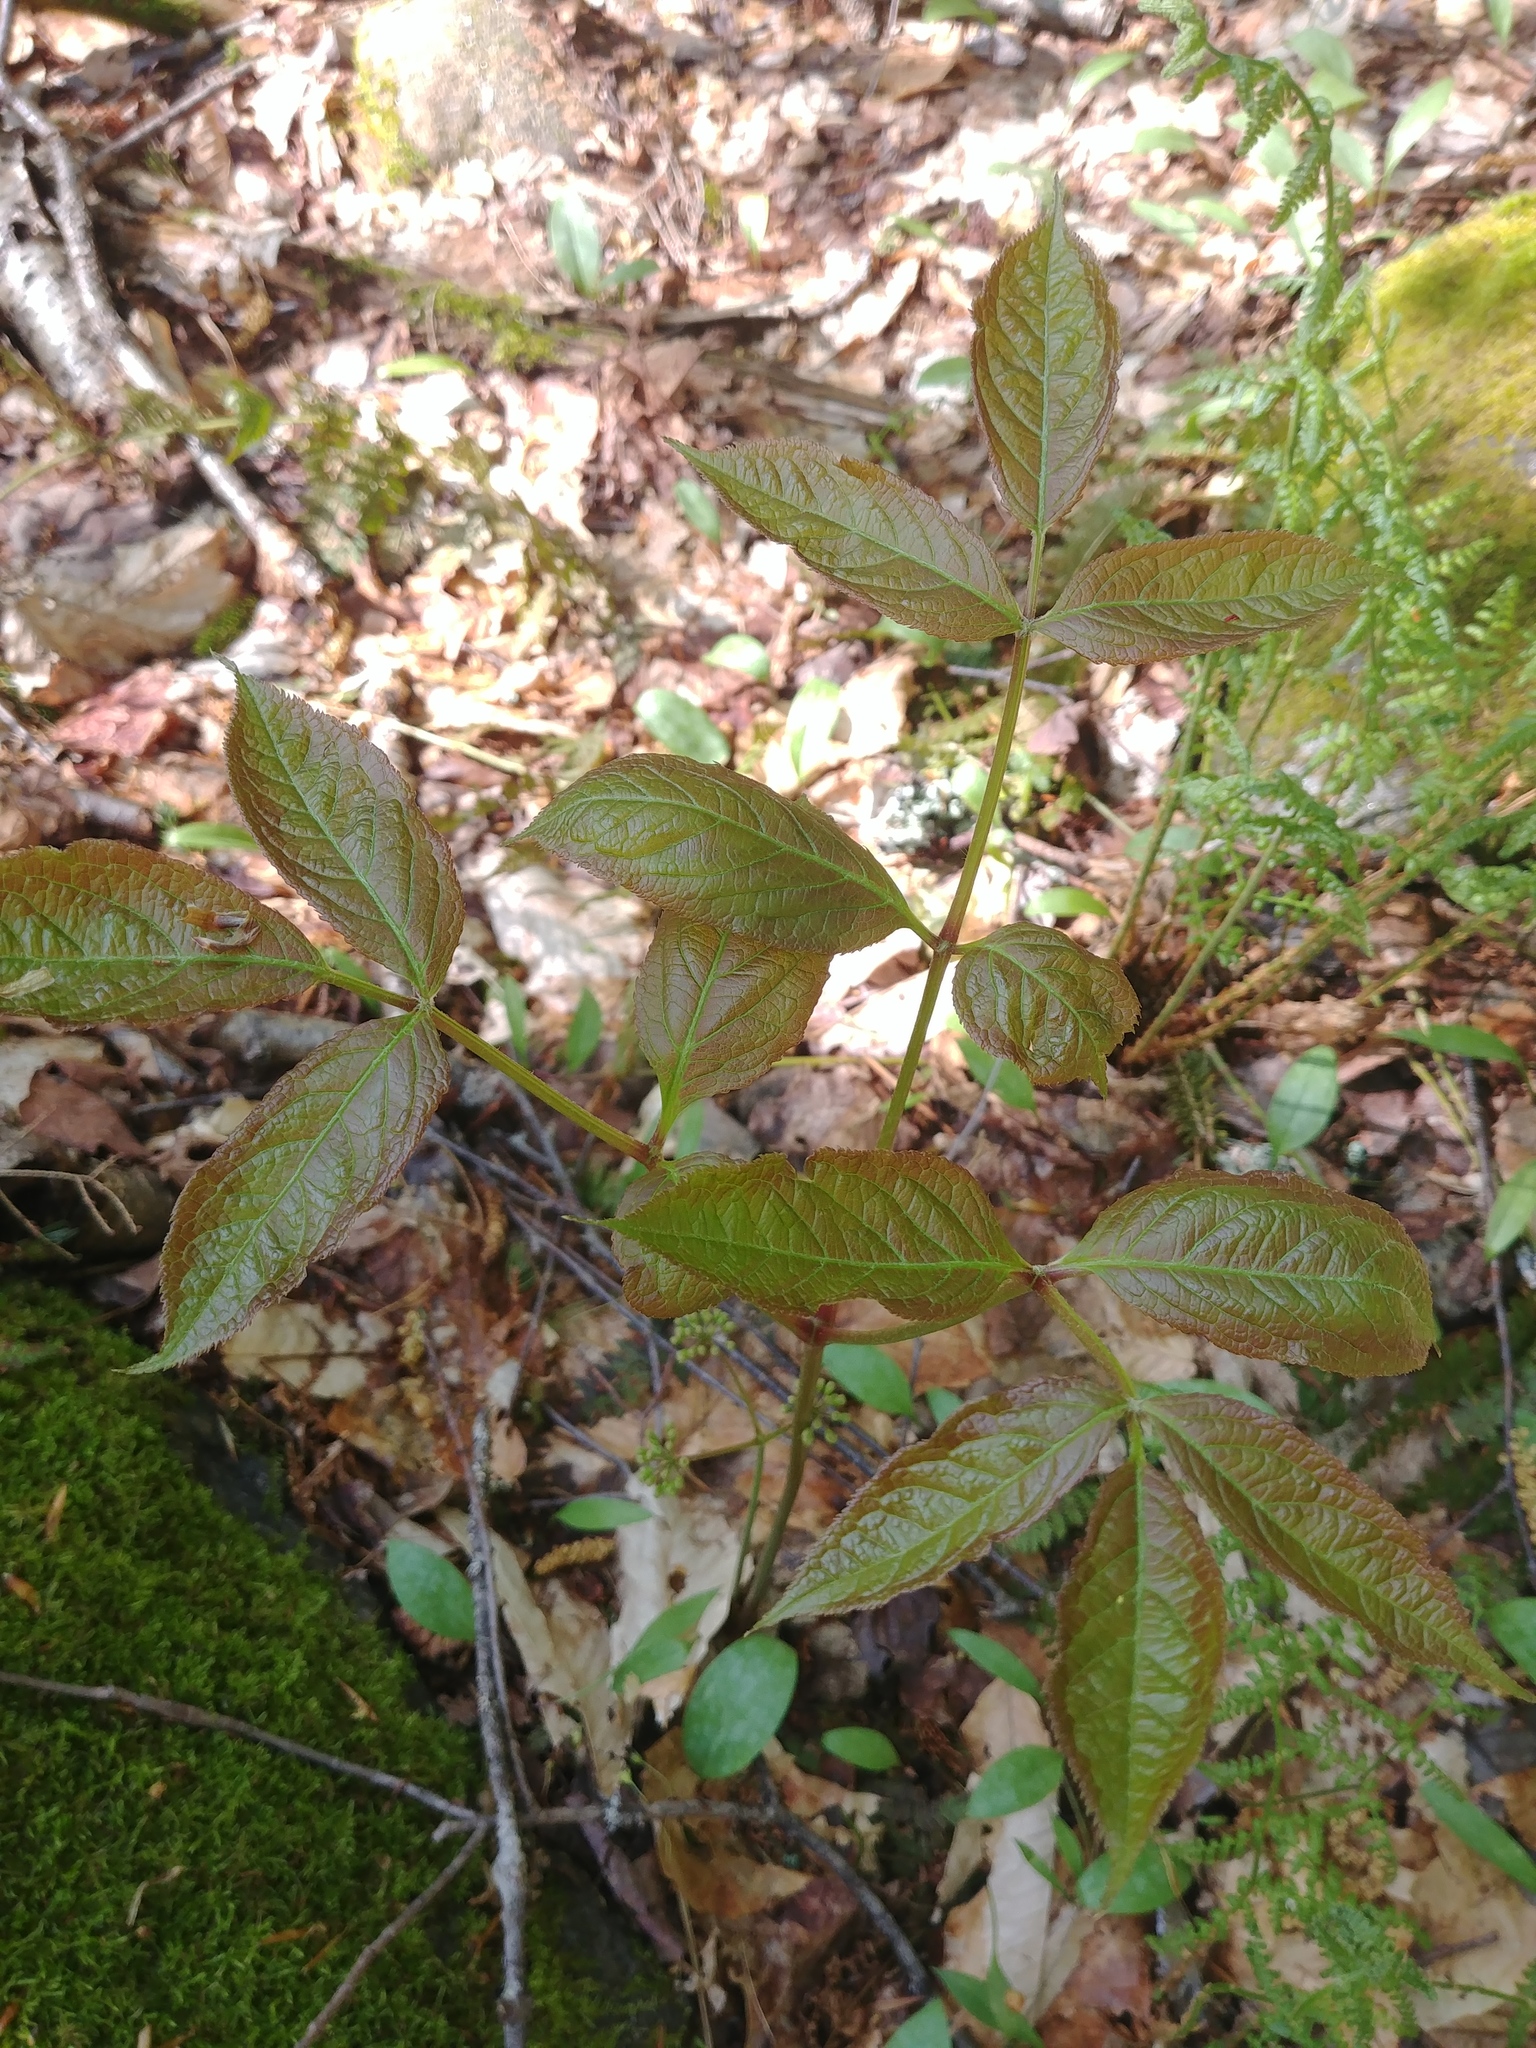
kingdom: Plantae
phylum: Tracheophyta
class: Magnoliopsida
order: Apiales
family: Araliaceae
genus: Aralia
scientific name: Aralia nudicaulis
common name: Wild sarsaparilla
